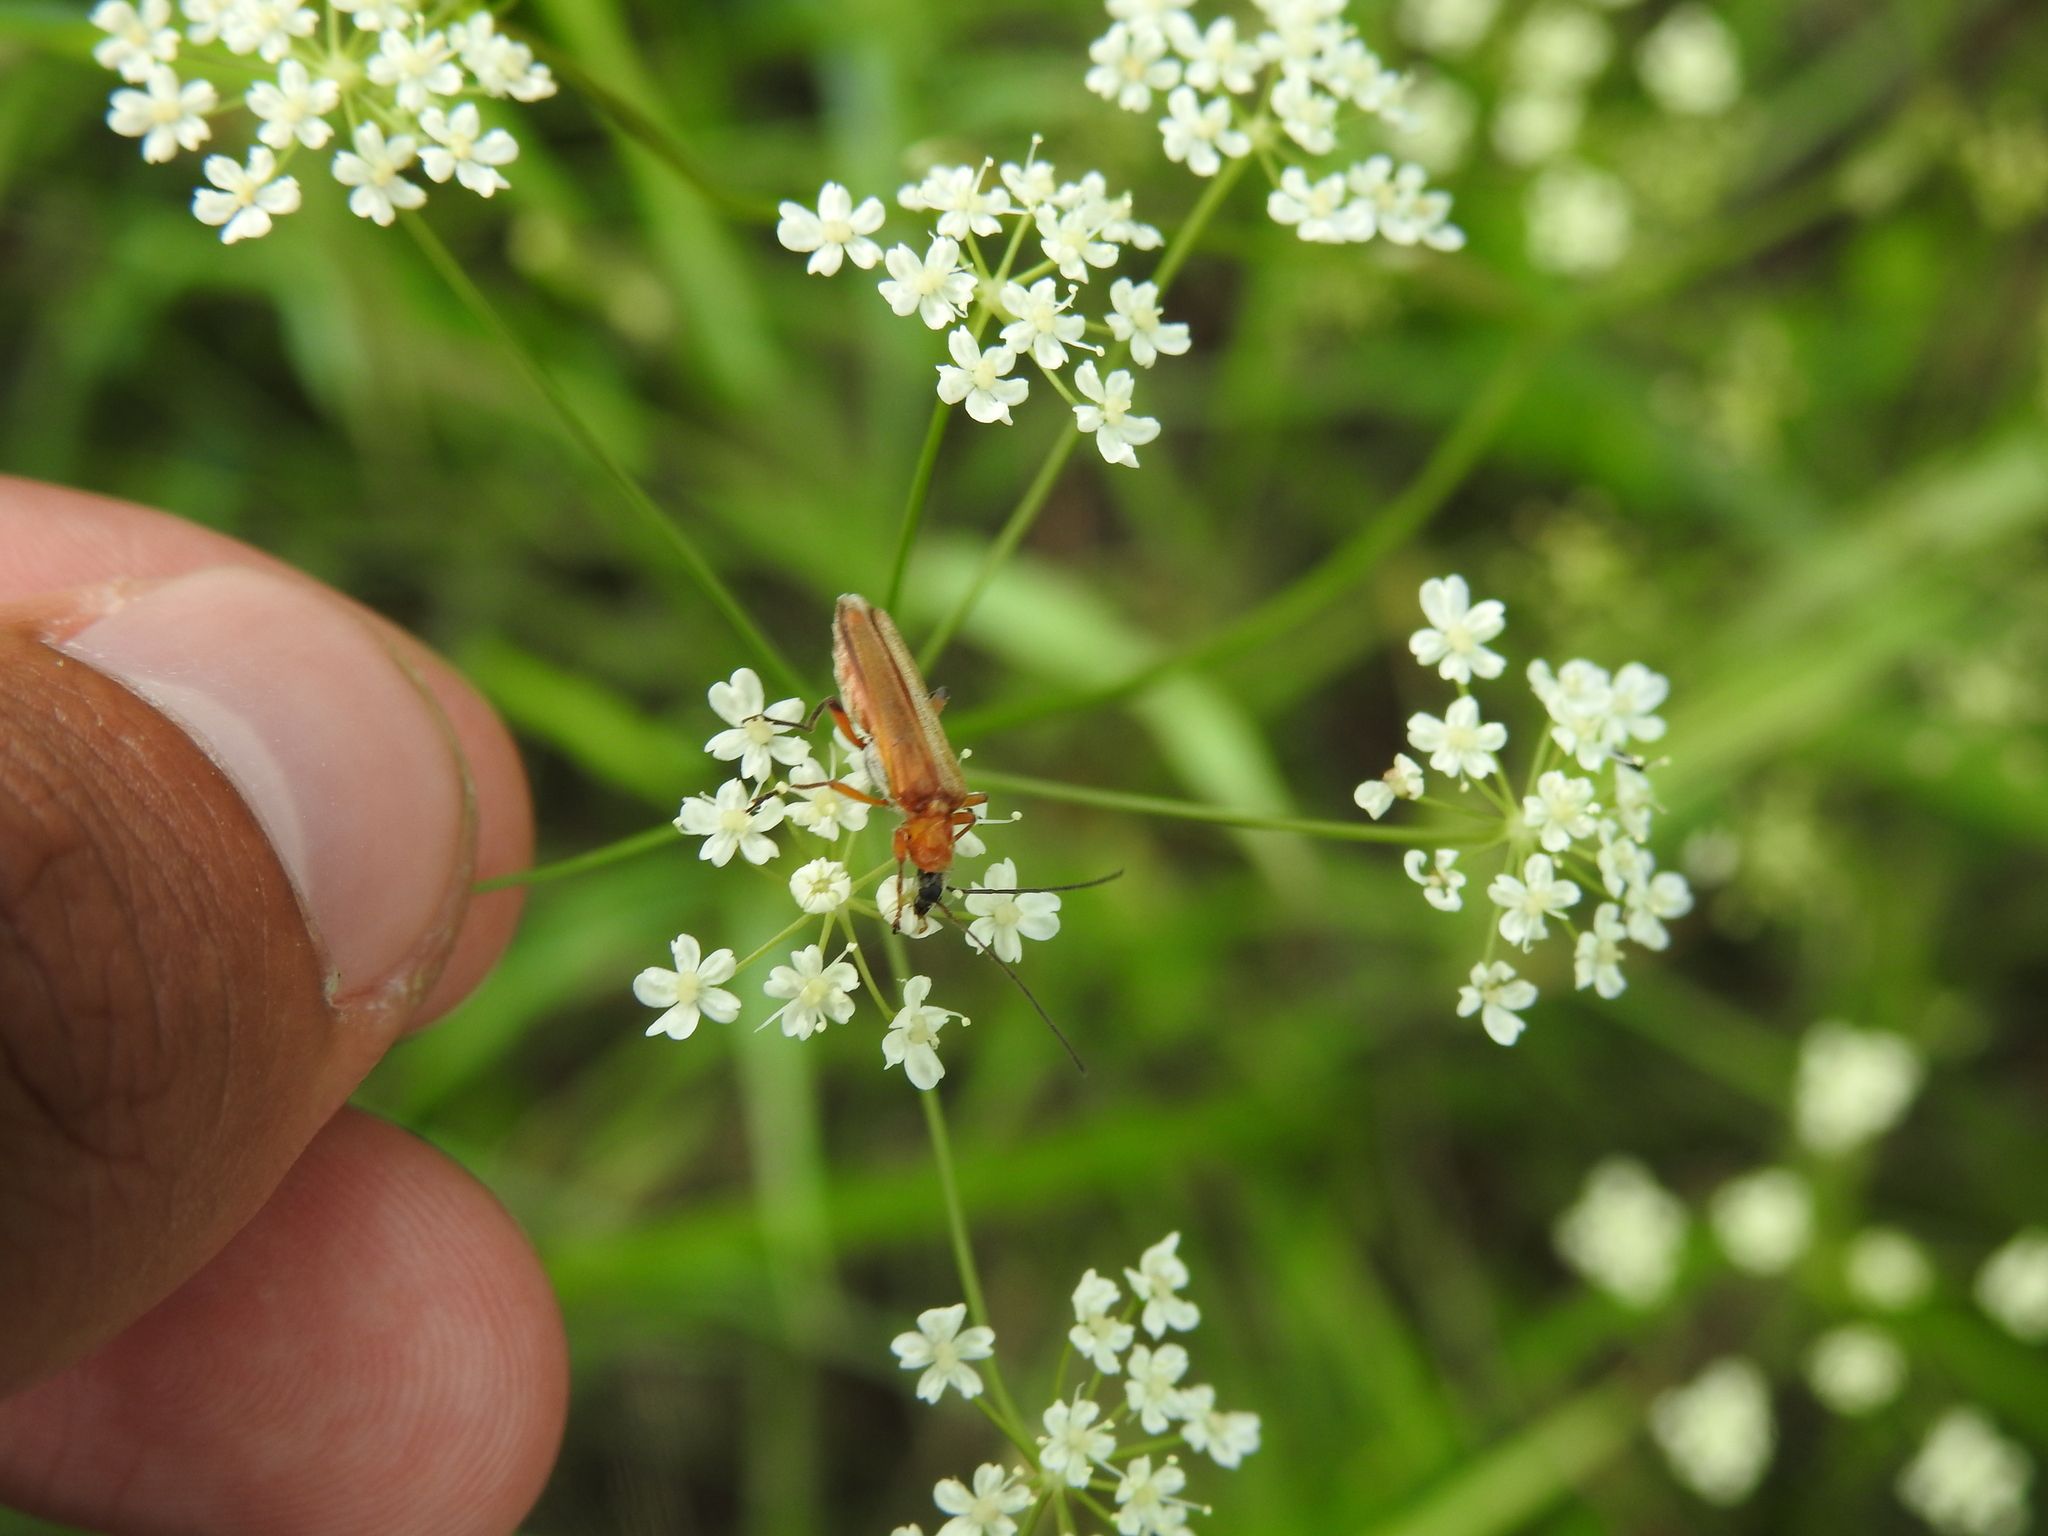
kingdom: Animalia
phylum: Arthropoda
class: Insecta
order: Coleoptera
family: Oedemeridae
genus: Oedemera
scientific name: Oedemera podagrariae
